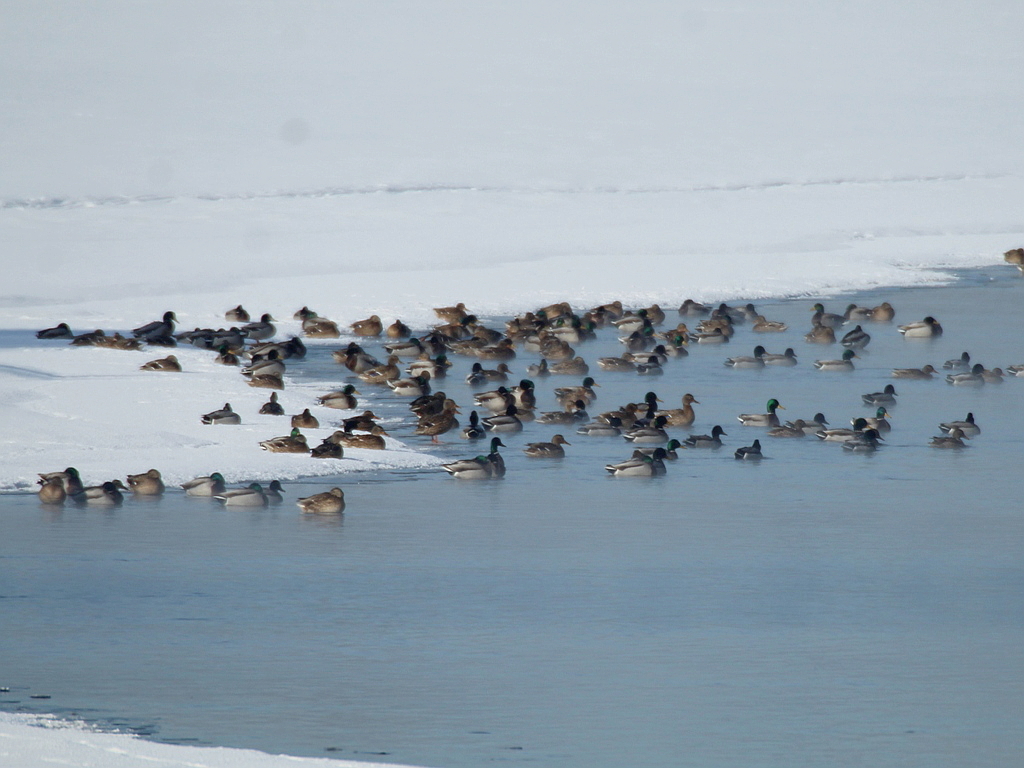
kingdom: Animalia
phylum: Chordata
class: Aves
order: Anseriformes
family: Anatidae
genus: Anas
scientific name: Anas platyrhynchos
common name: Mallard
